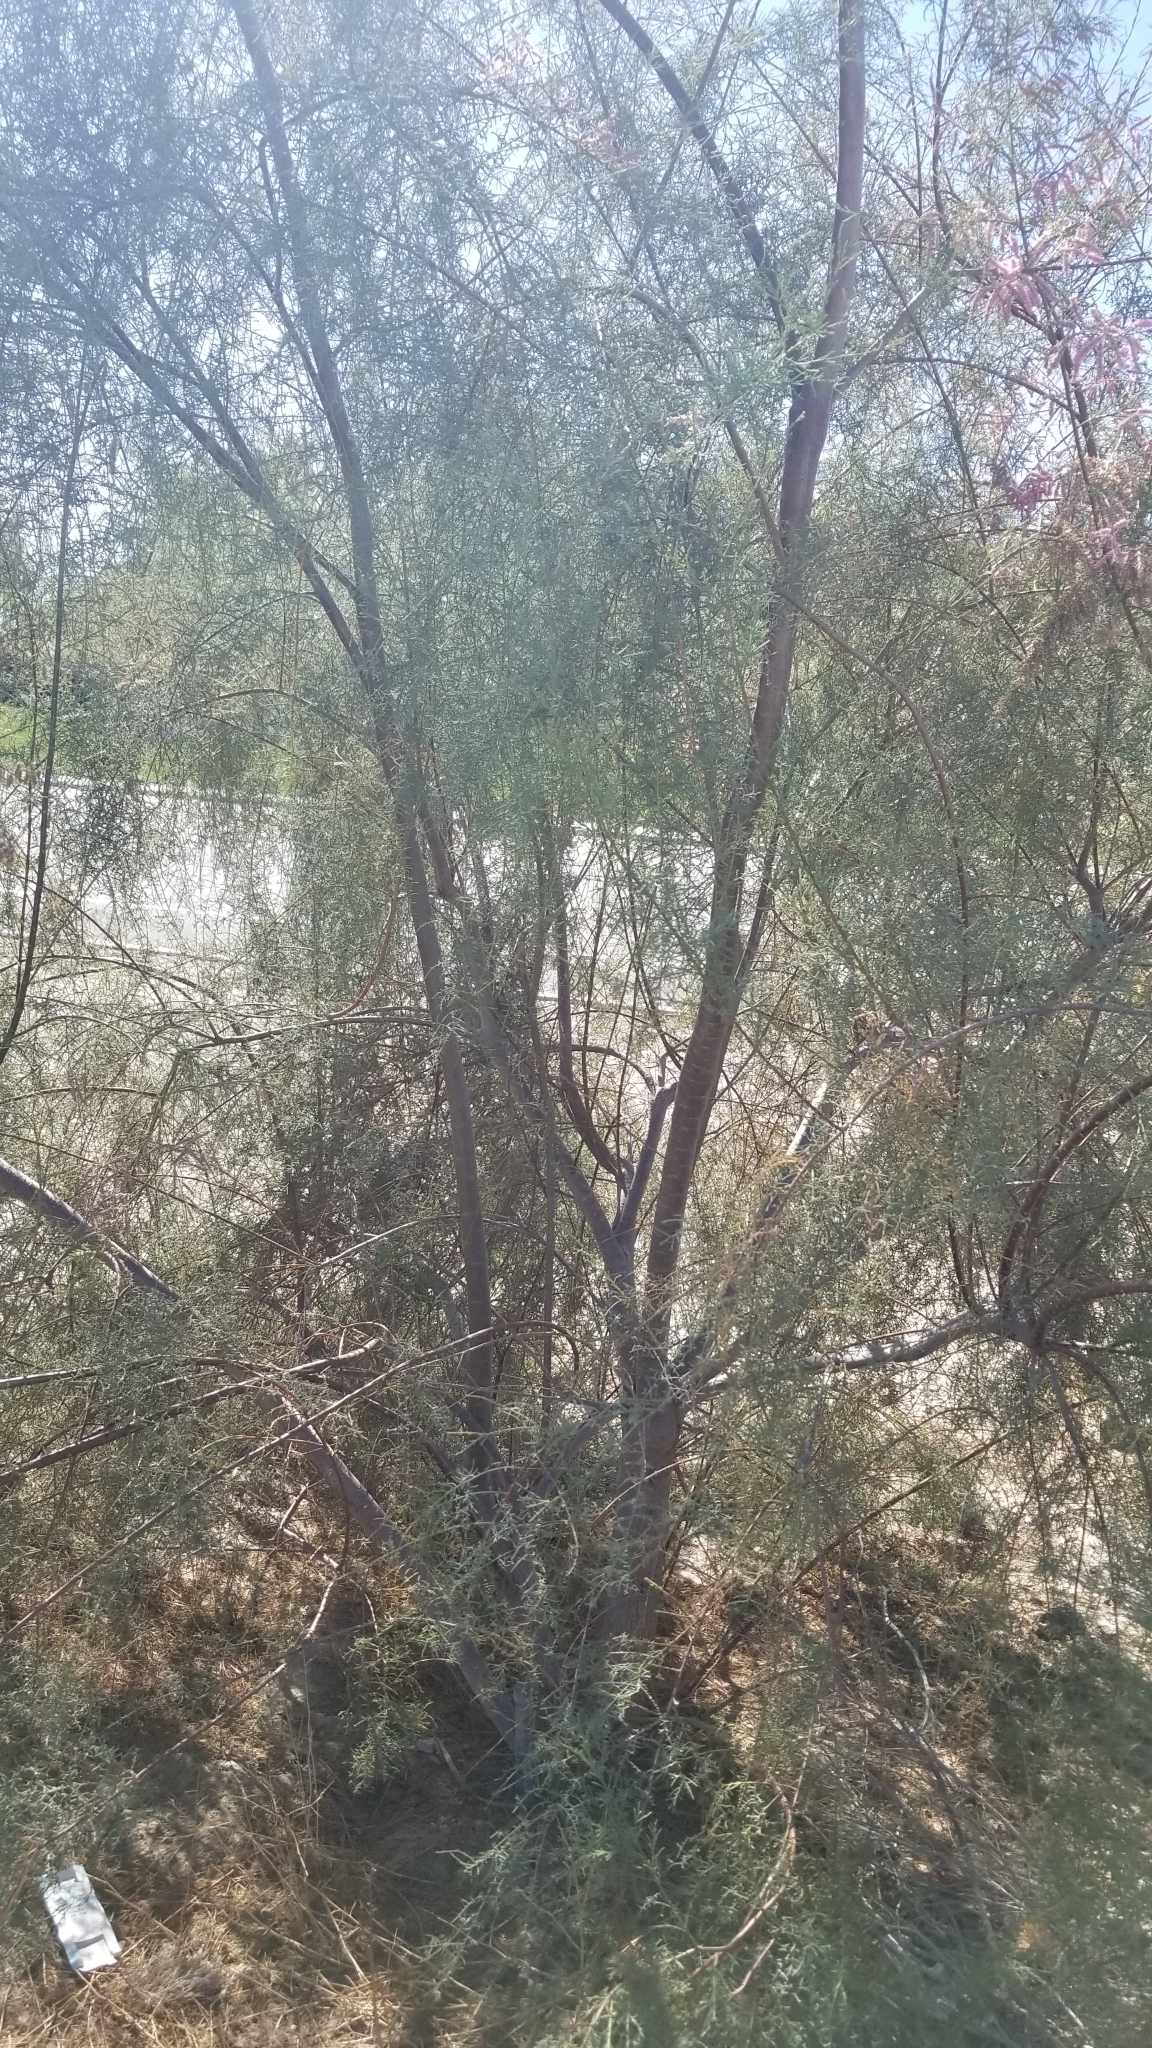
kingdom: Plantae
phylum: Tracheophyta
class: Magnoliopsida
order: Caryophyllales
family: Tamaricaceae
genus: Tamarix
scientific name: Tamarix ramosissima
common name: Pink tamarisk
